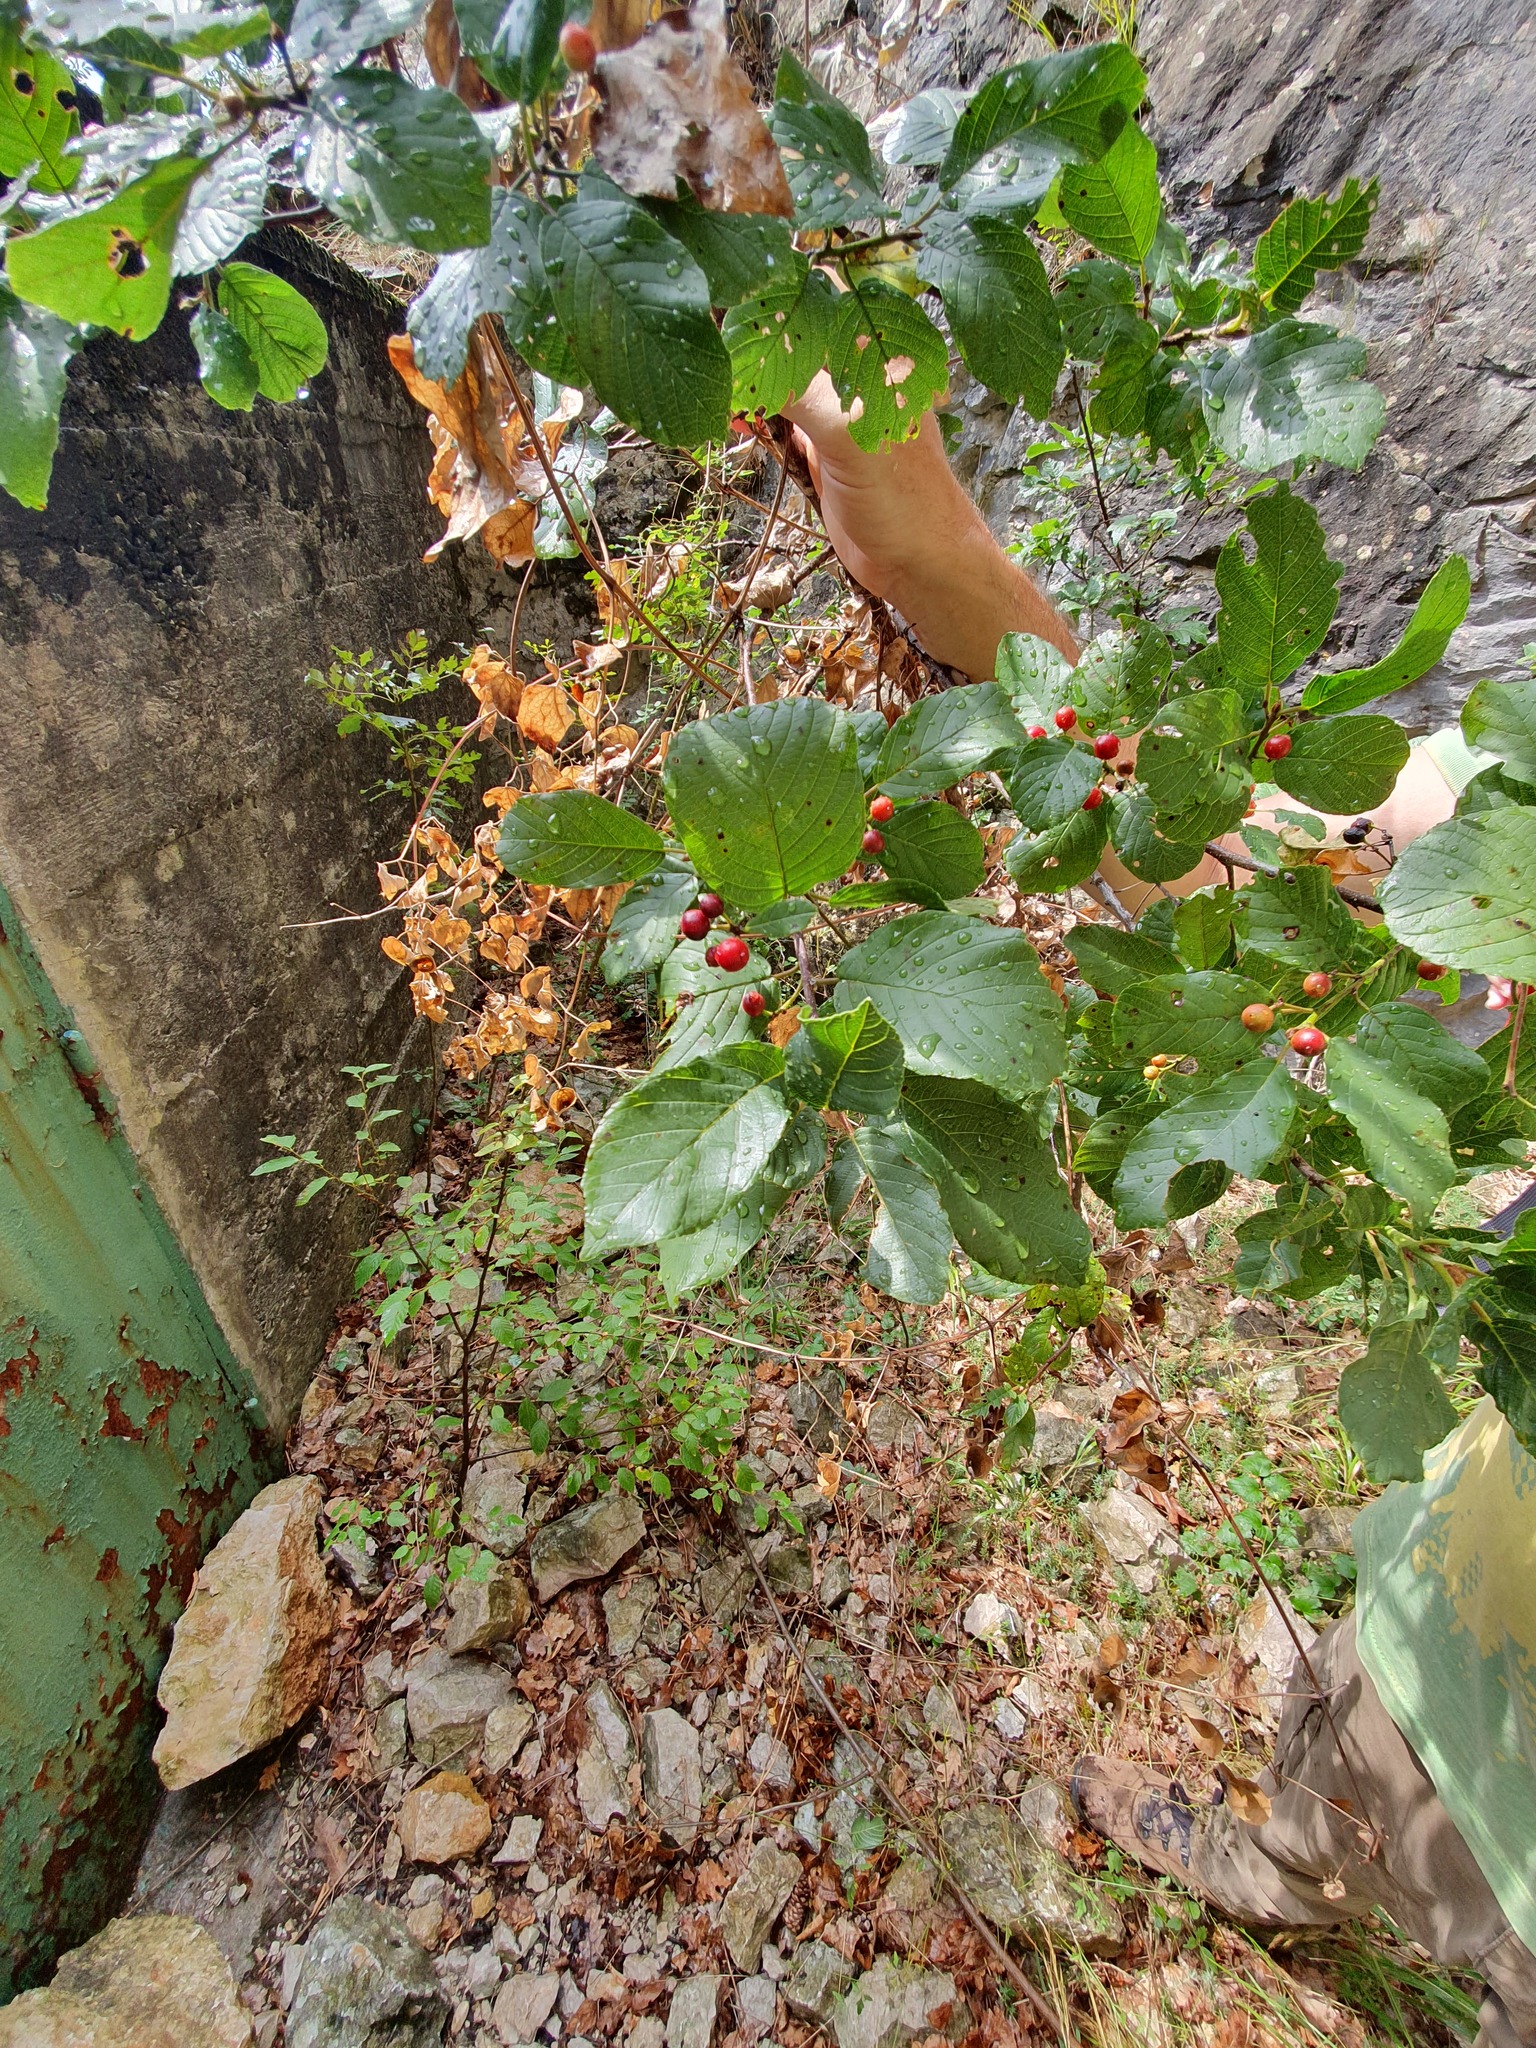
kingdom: Plantae
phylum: Tracheophyta
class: Magnoliopsida
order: Rosales
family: Rhamnaceae
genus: Frangula
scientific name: Frangula rupestris
